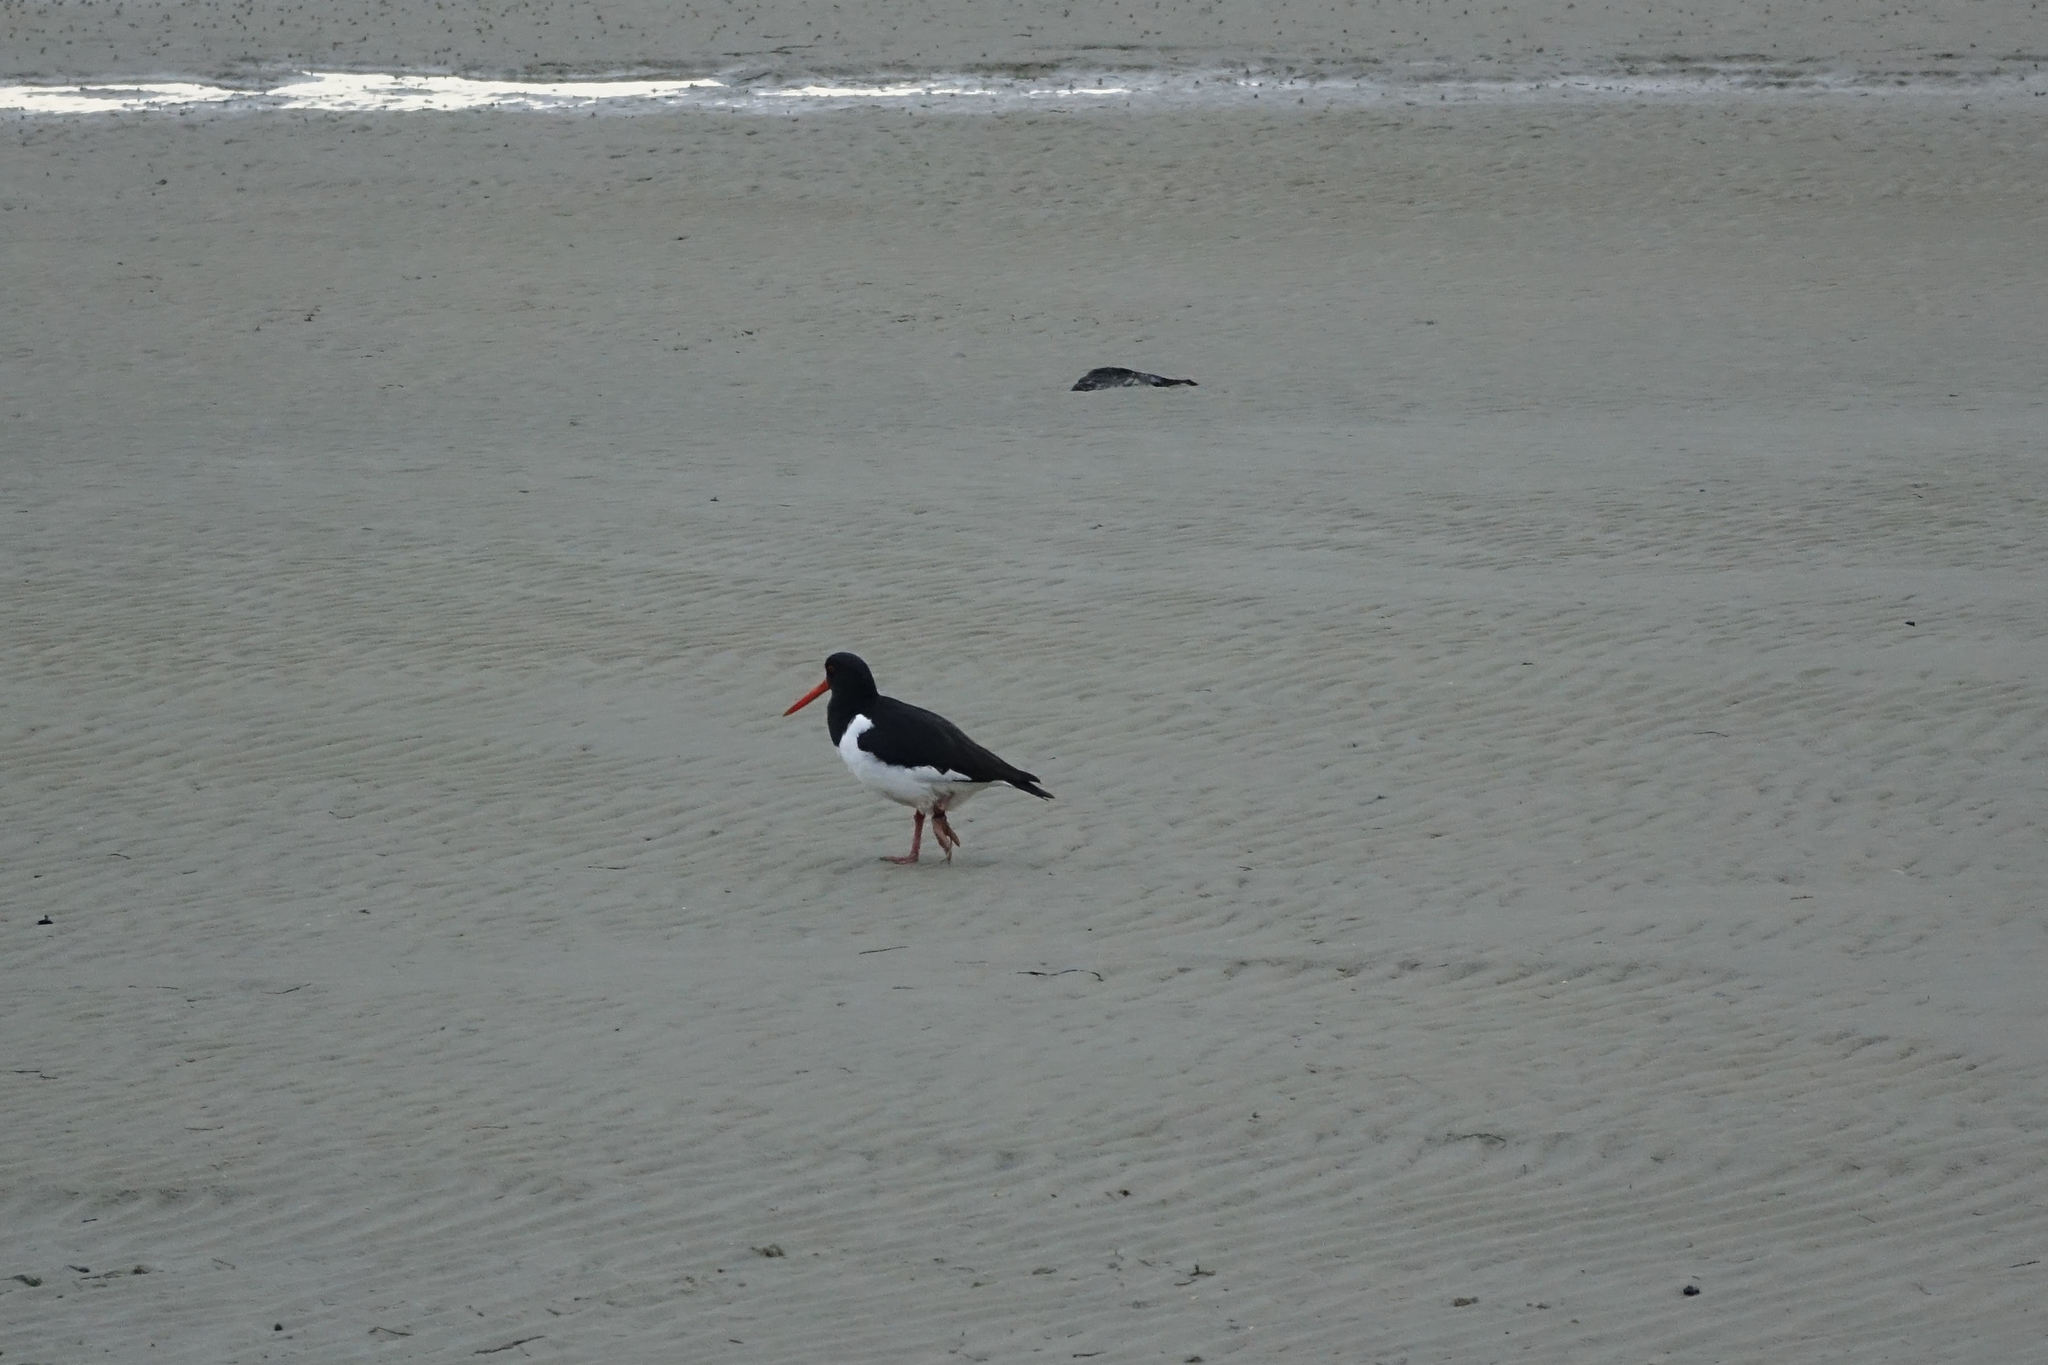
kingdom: Animalia
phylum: Chordata
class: Aves
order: Charadriiformes
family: Haematopodidae
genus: Haematopus
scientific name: Haematopus finschi
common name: South island oystercatcher
